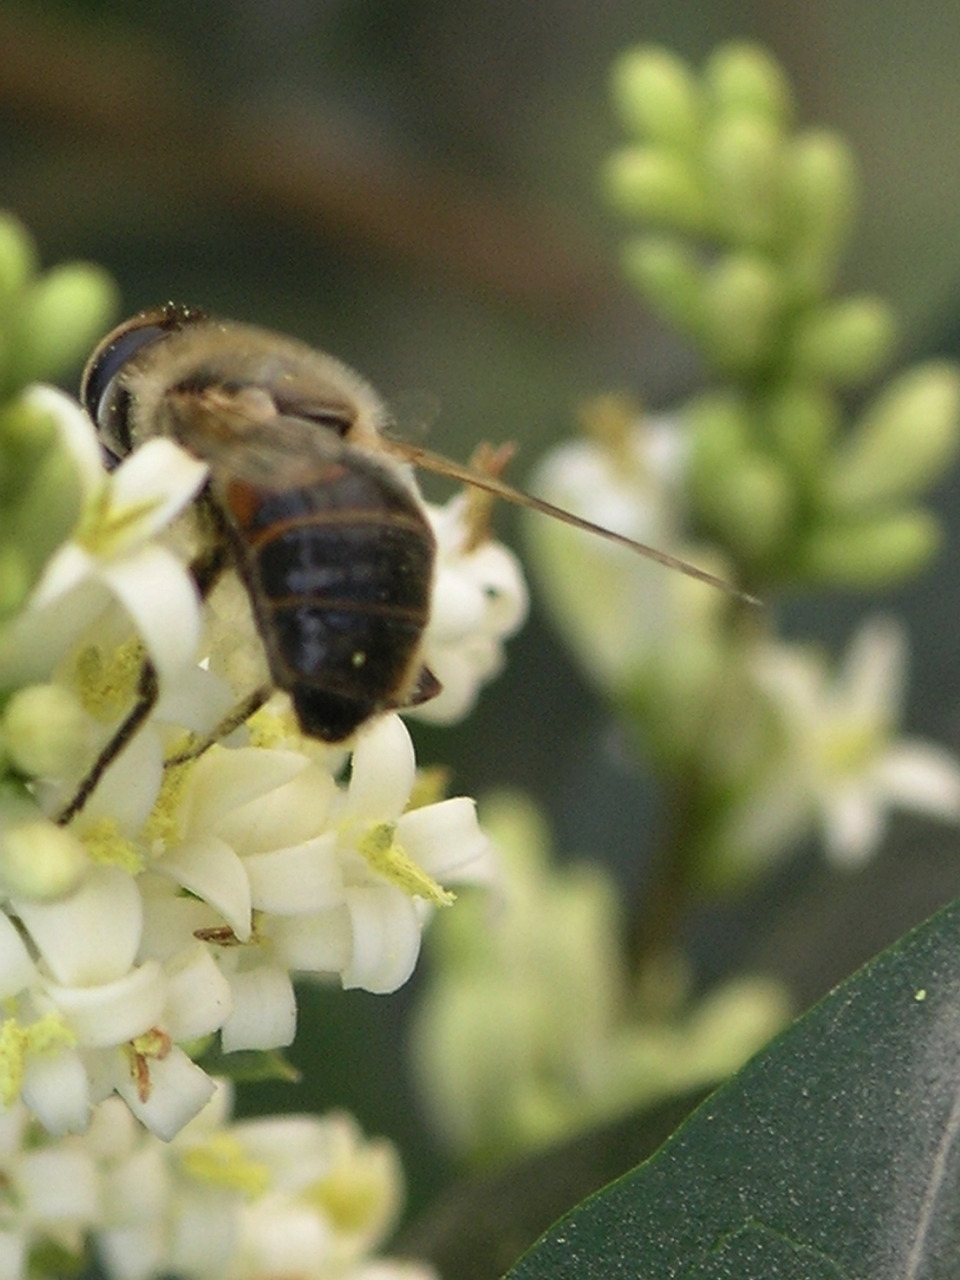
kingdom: Animalia
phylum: Arthropoda
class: Insecta
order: Diptera
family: Syrphidae
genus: Eristalis
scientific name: Eristalis tenax
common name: Drone fly
